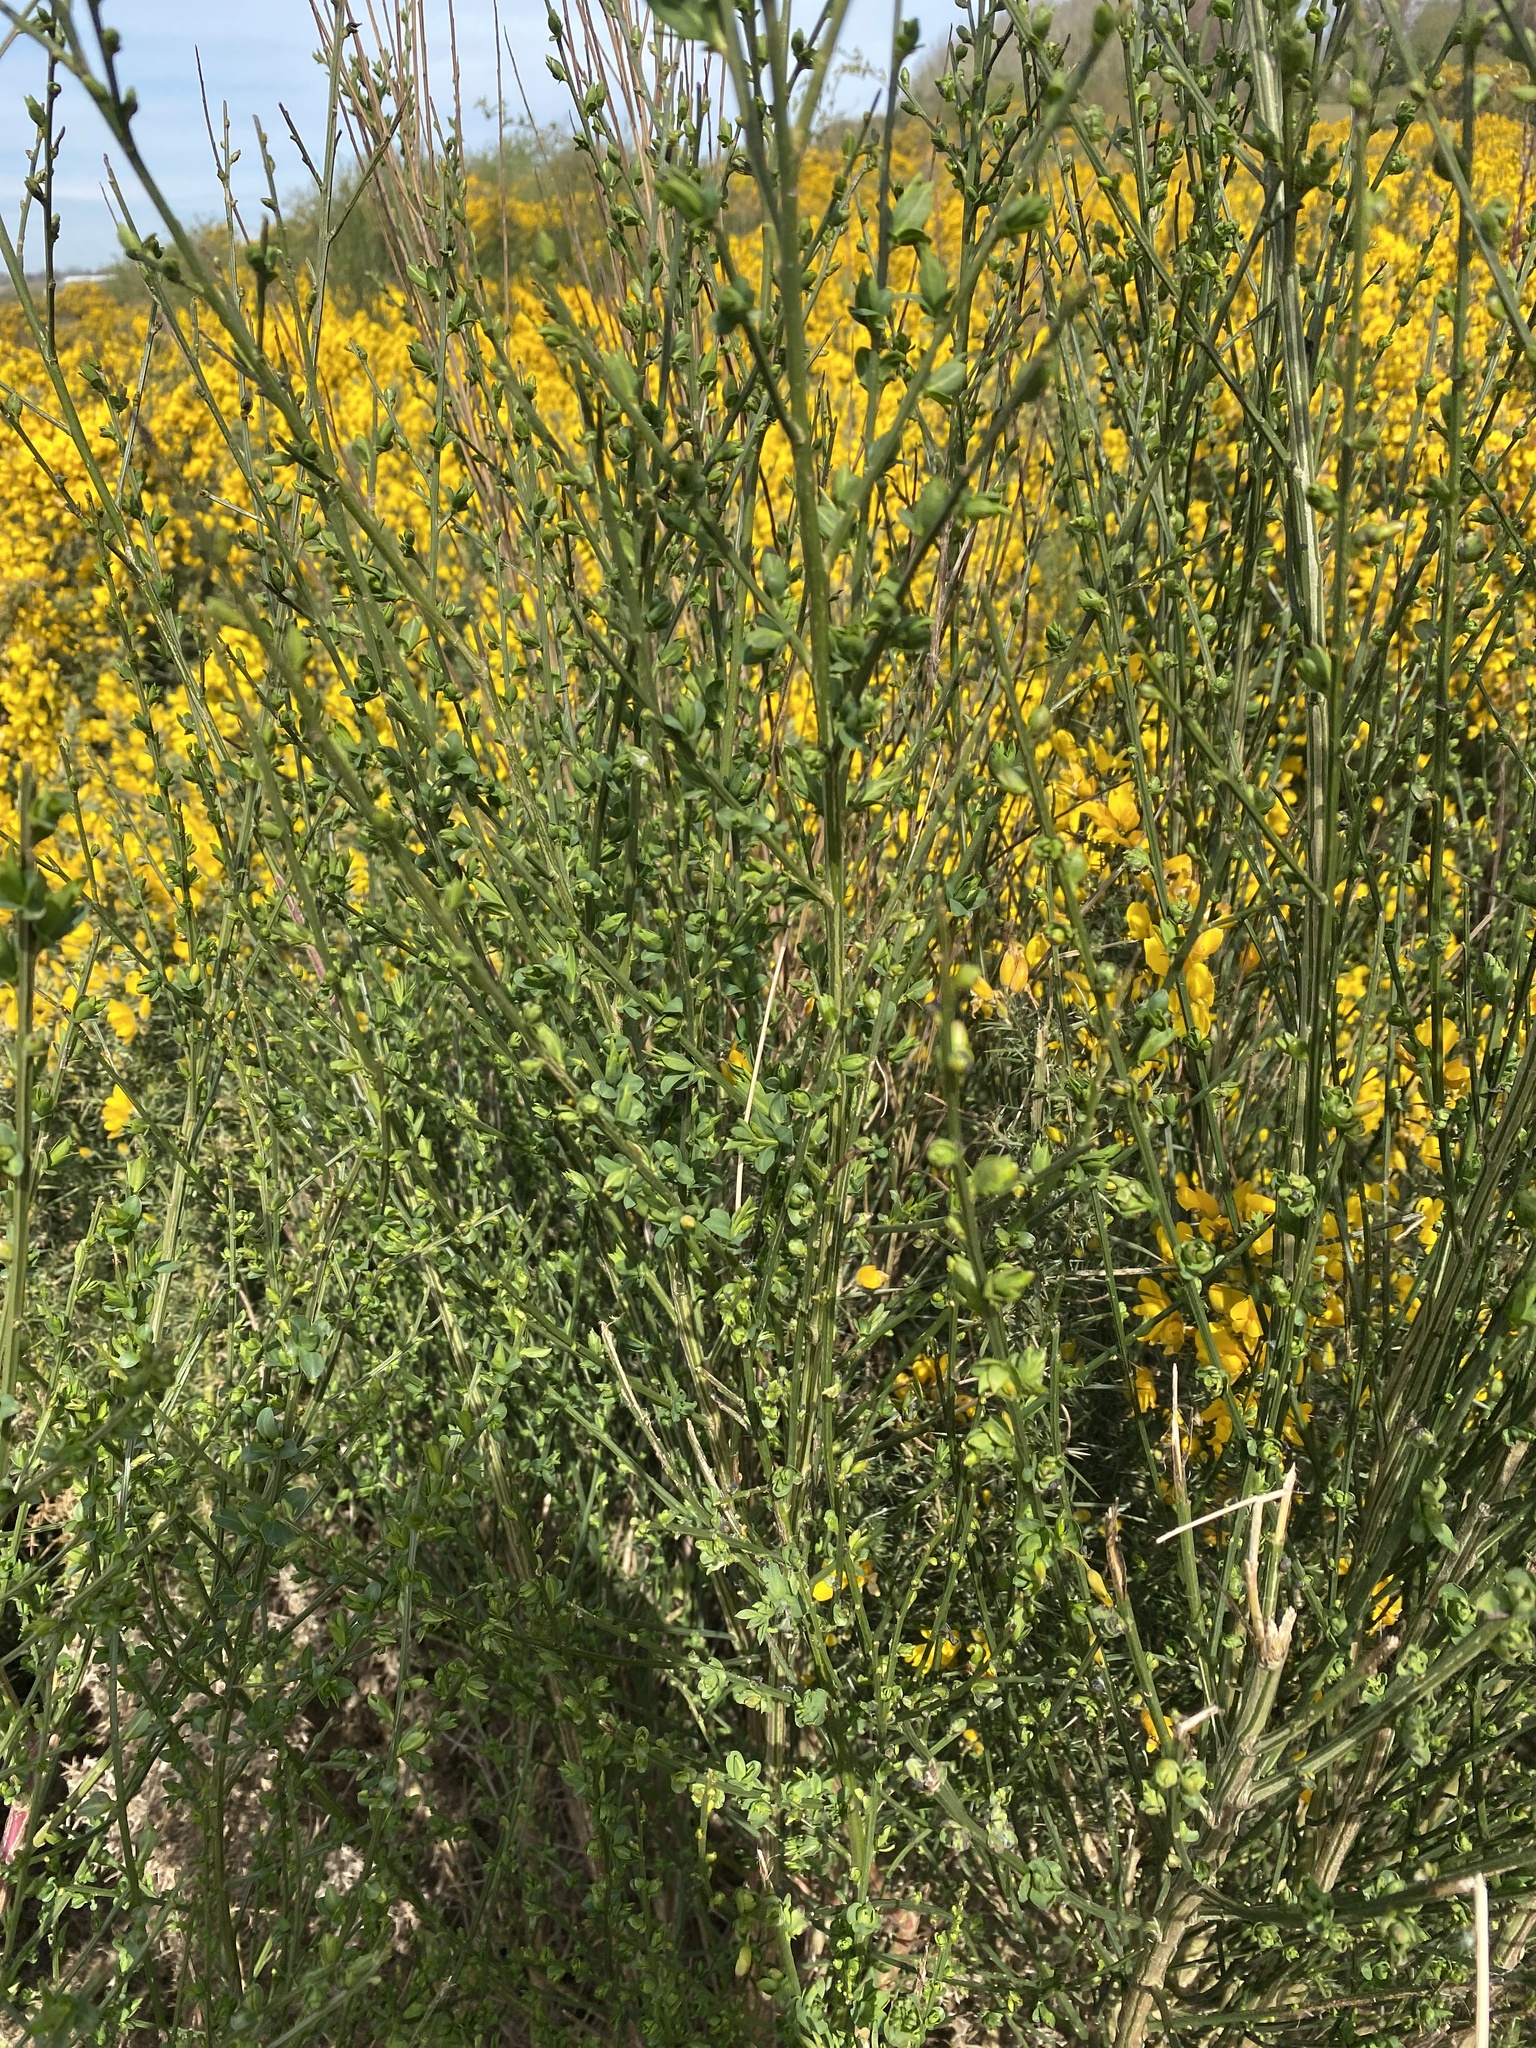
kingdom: Plantae
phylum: Tracheophyta
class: Magnoliopsida
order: Fabales
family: Fabaceae
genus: Cytisus
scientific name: Cytisus scoparius
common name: Scotch broom
